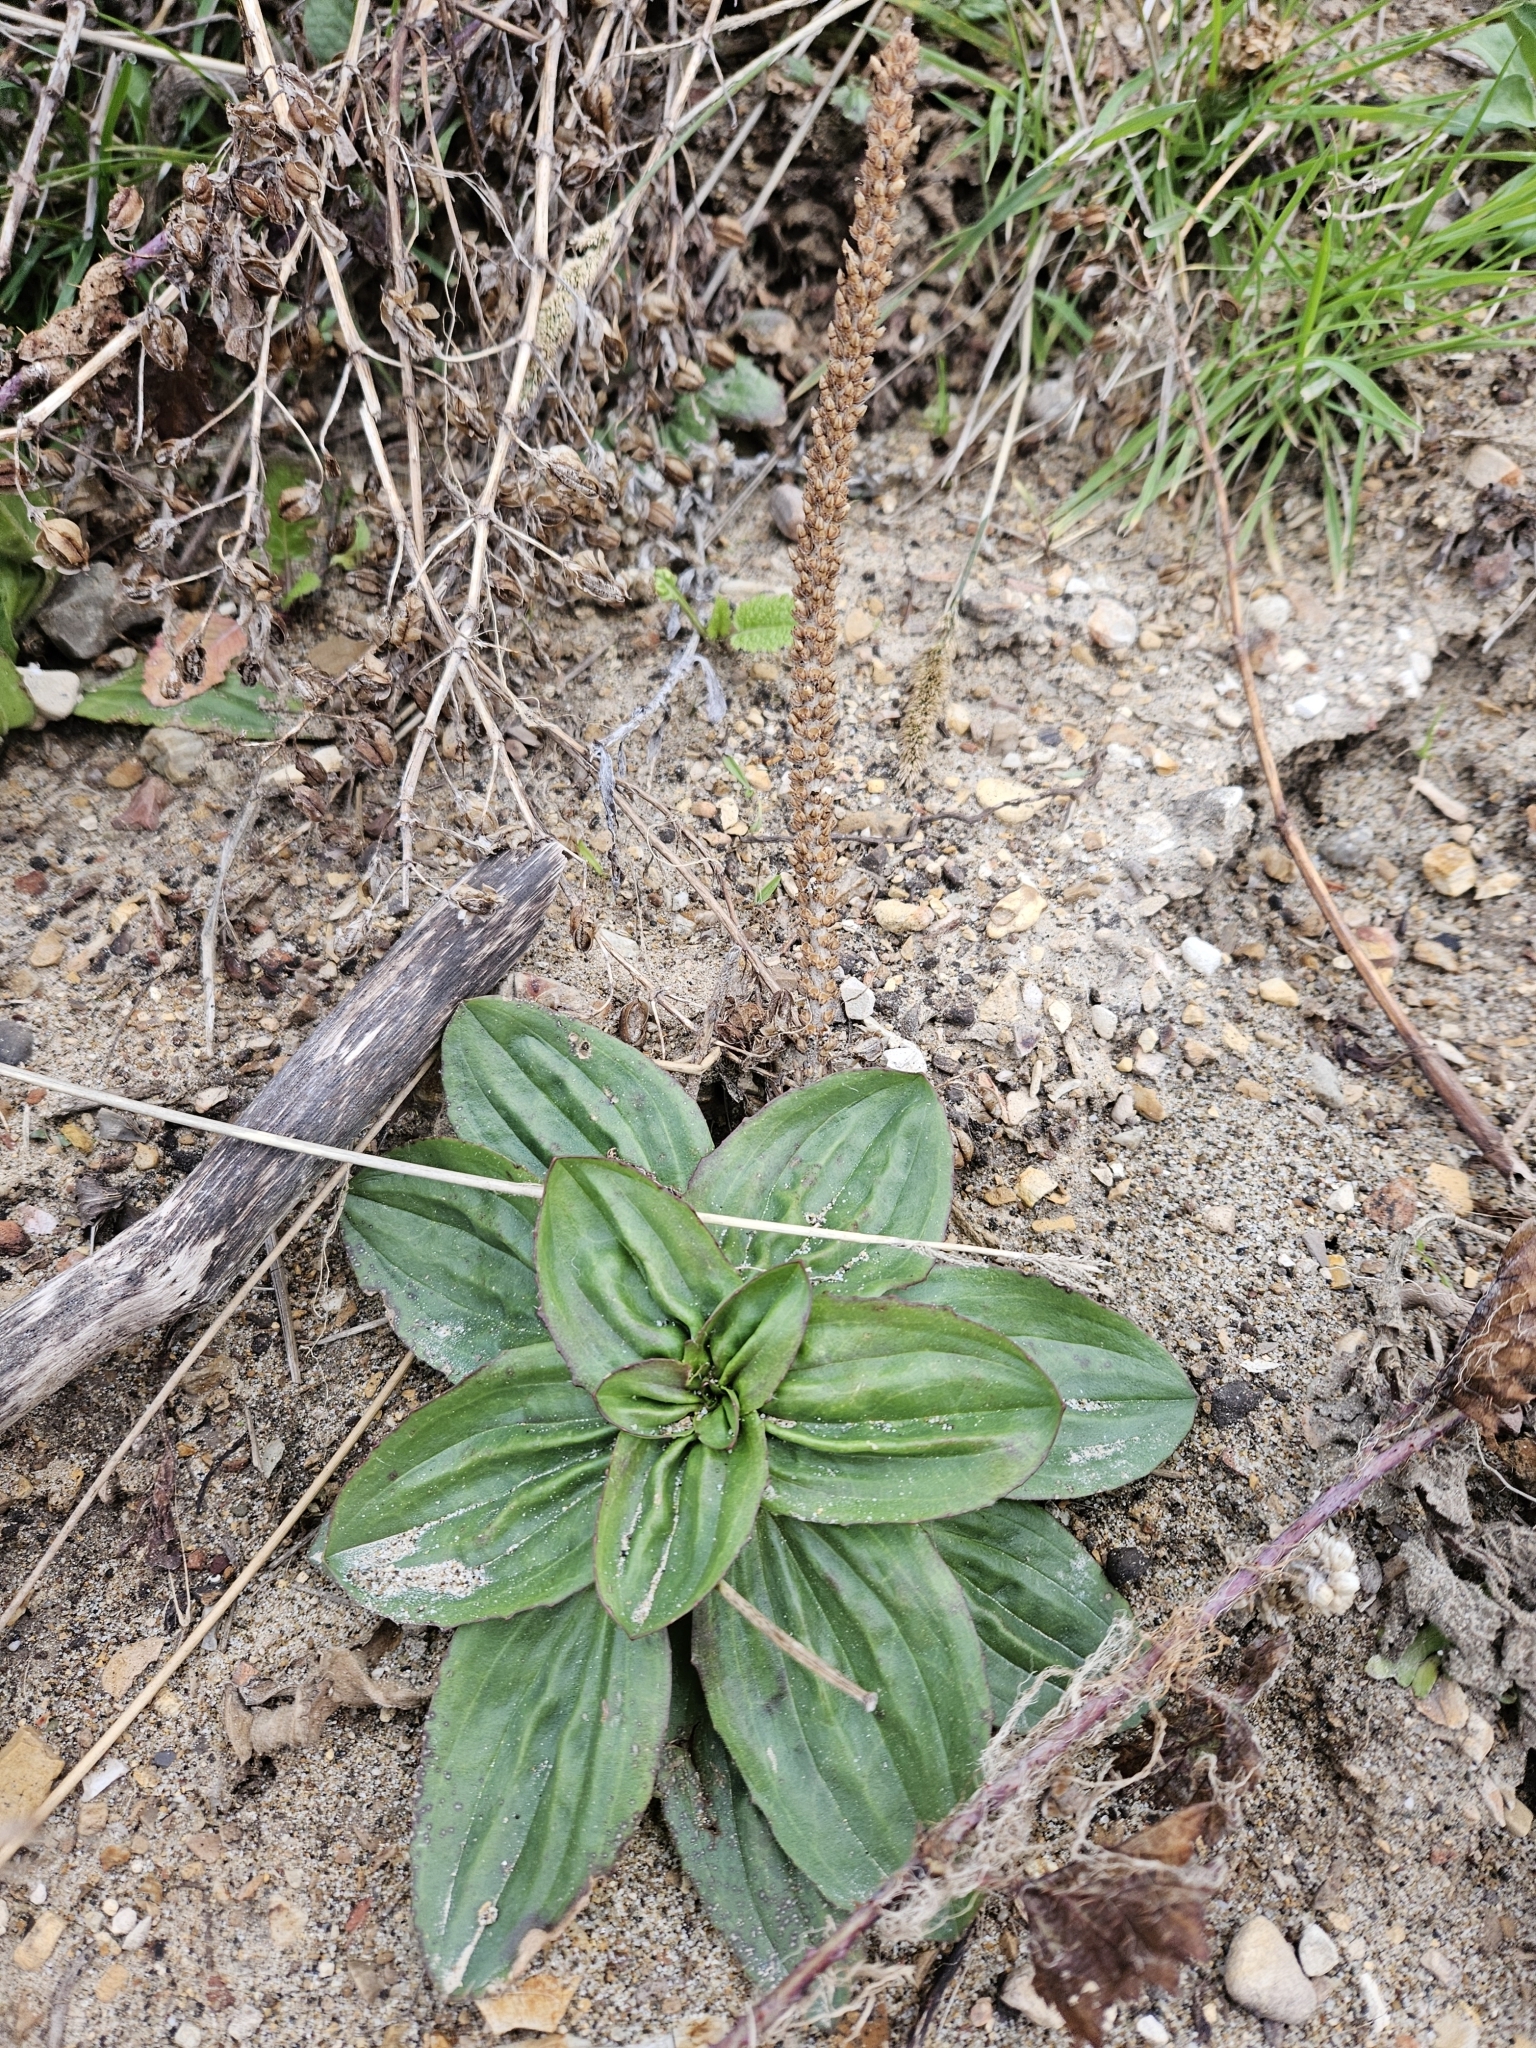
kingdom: Plantae
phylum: Tracheophyta
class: Magnoliopsida
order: Lamiales
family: Plantaginaceae
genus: Plantago
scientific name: Plantago subnuda
